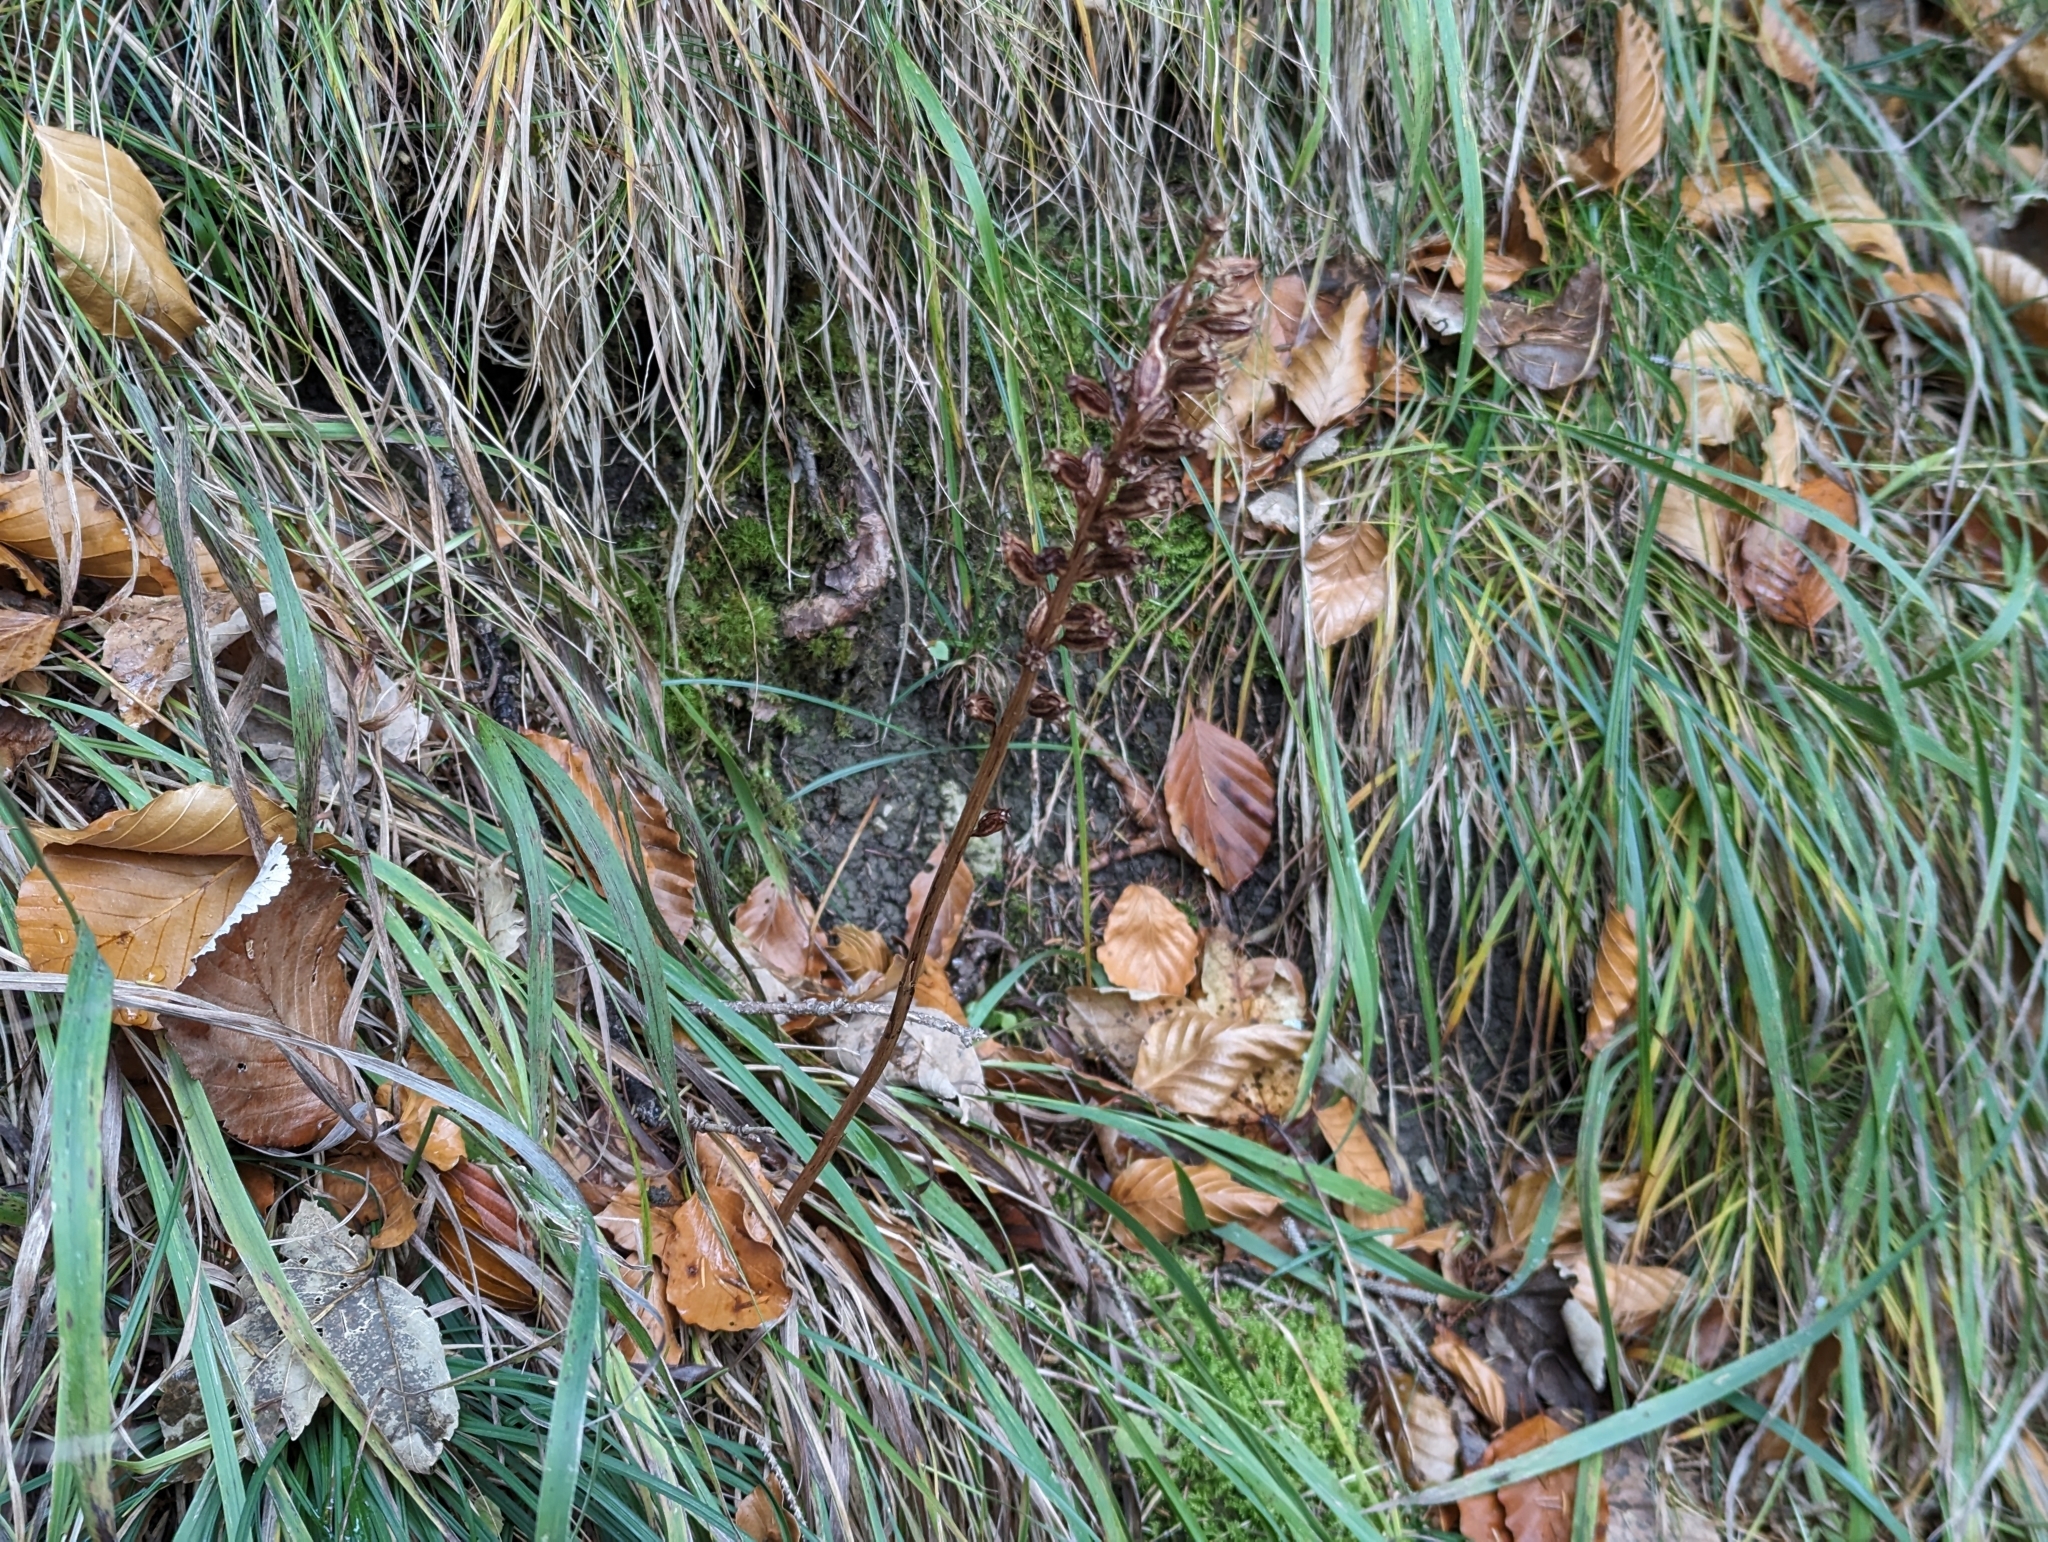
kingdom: Plantae
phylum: Tracheophyta
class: Liliopsida
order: Asparagales
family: Orchidaceae
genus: Neottia
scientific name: Neottia nidus-avis
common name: Bird's-nest orchid
